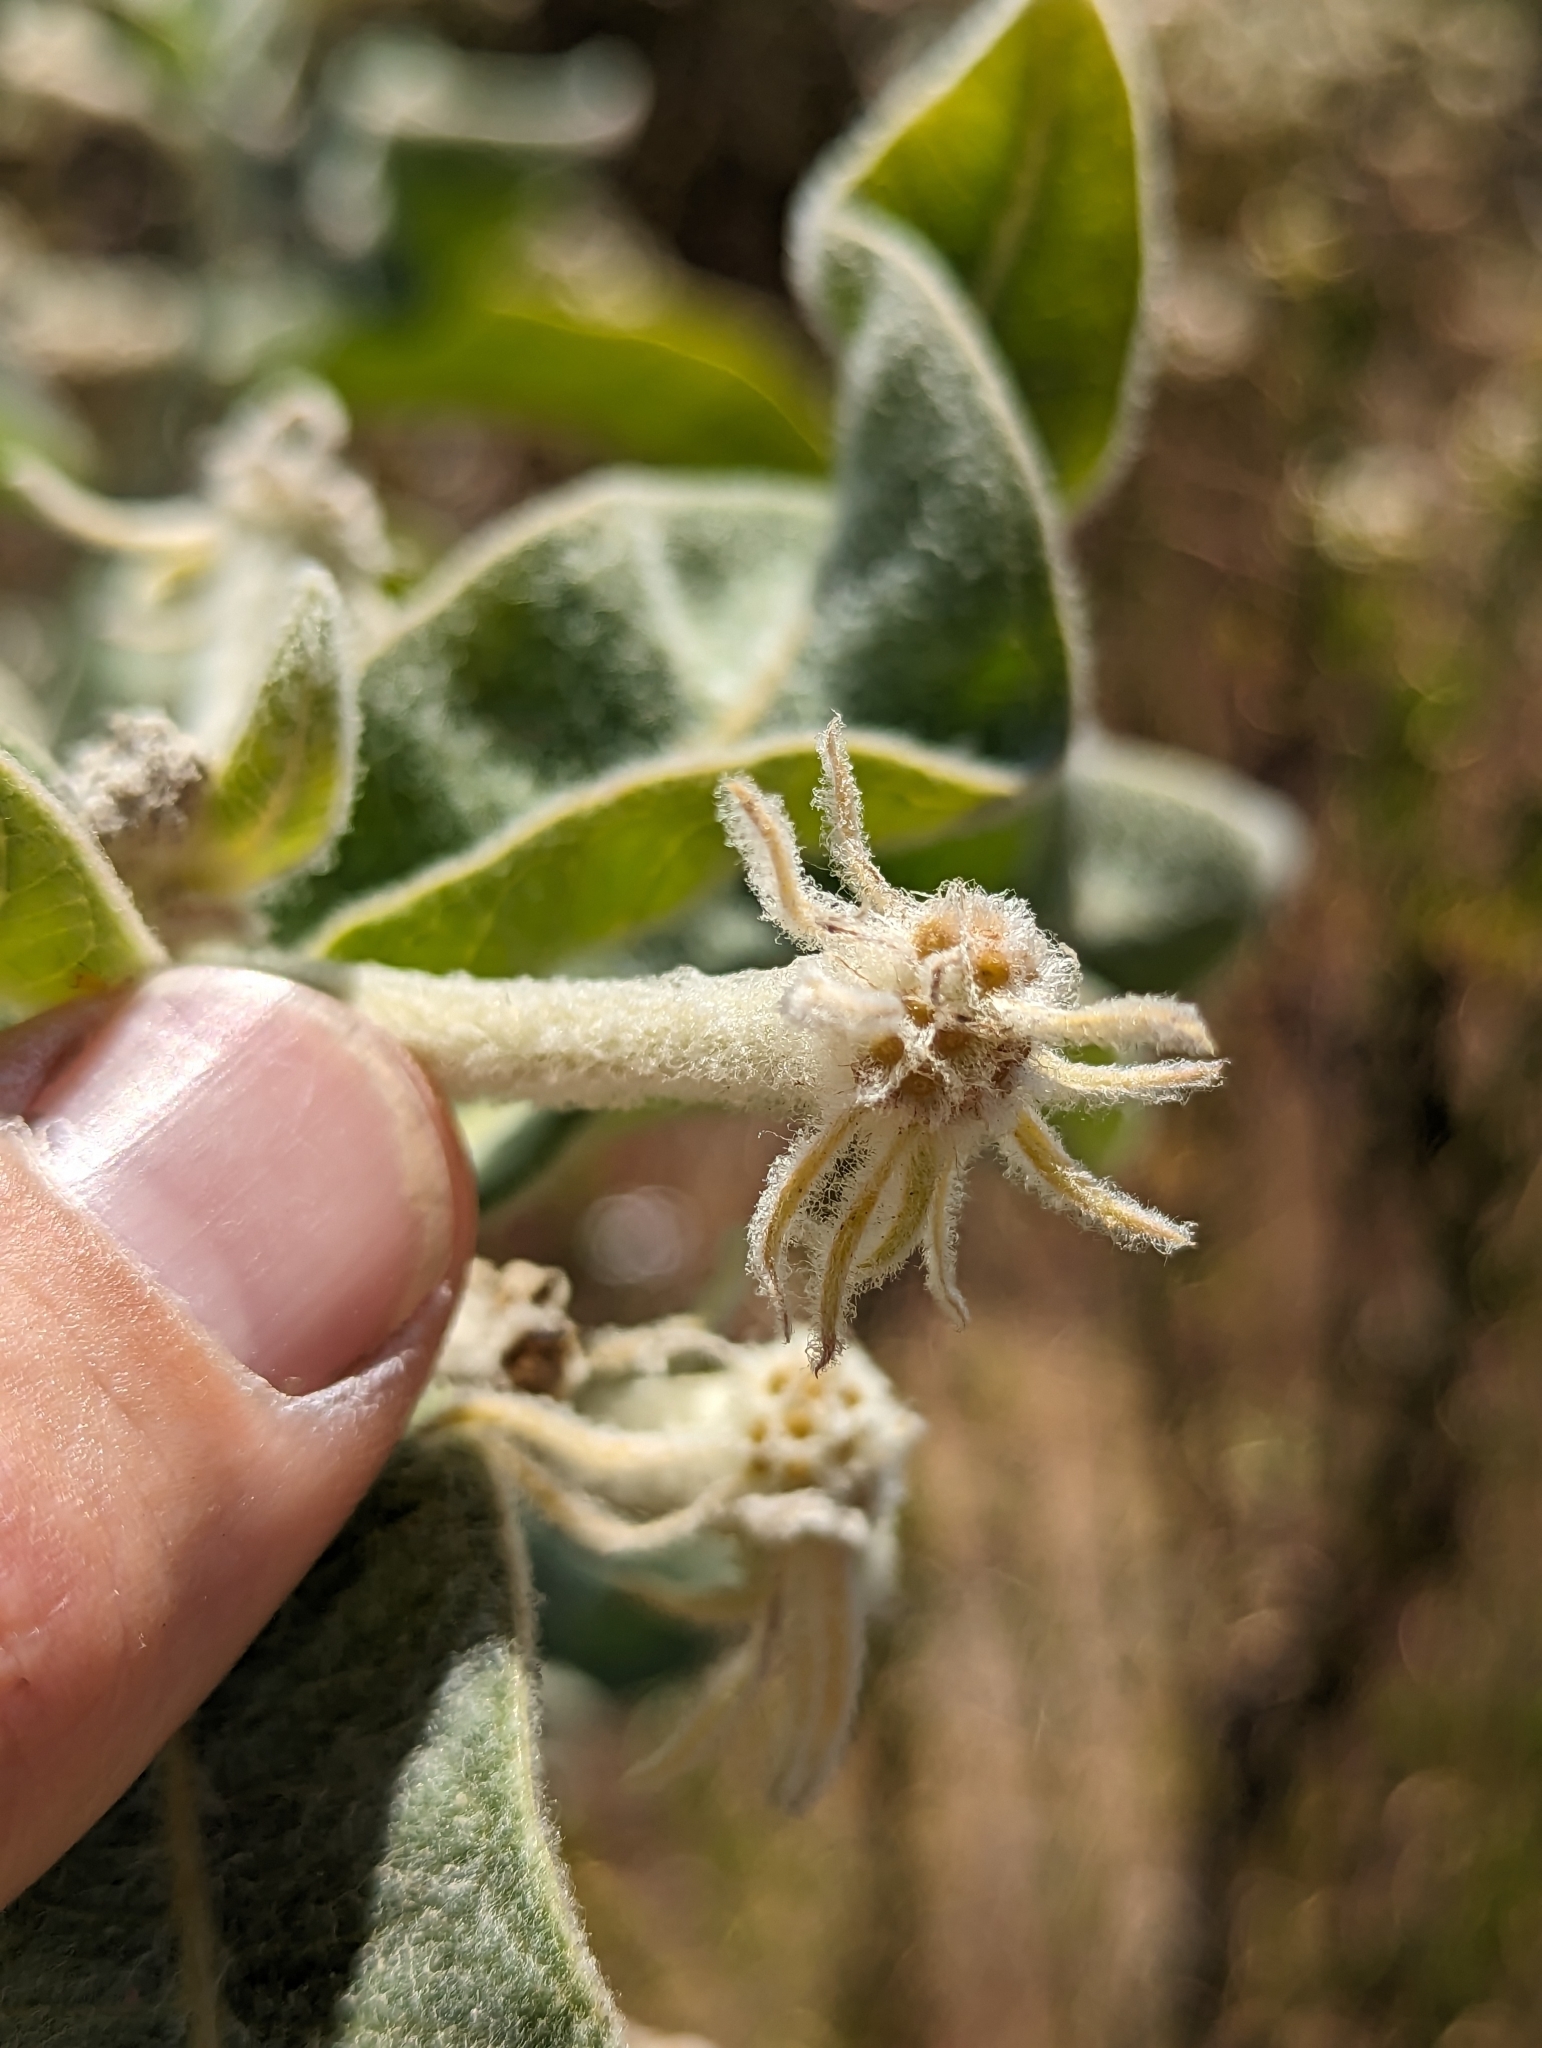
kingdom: Plantae
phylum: Tracheophyta
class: Magnoliopsida
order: Gentianales
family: Apocynaceae
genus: Asclepias
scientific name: Asclepias eriocarpa
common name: Indian milkweed
